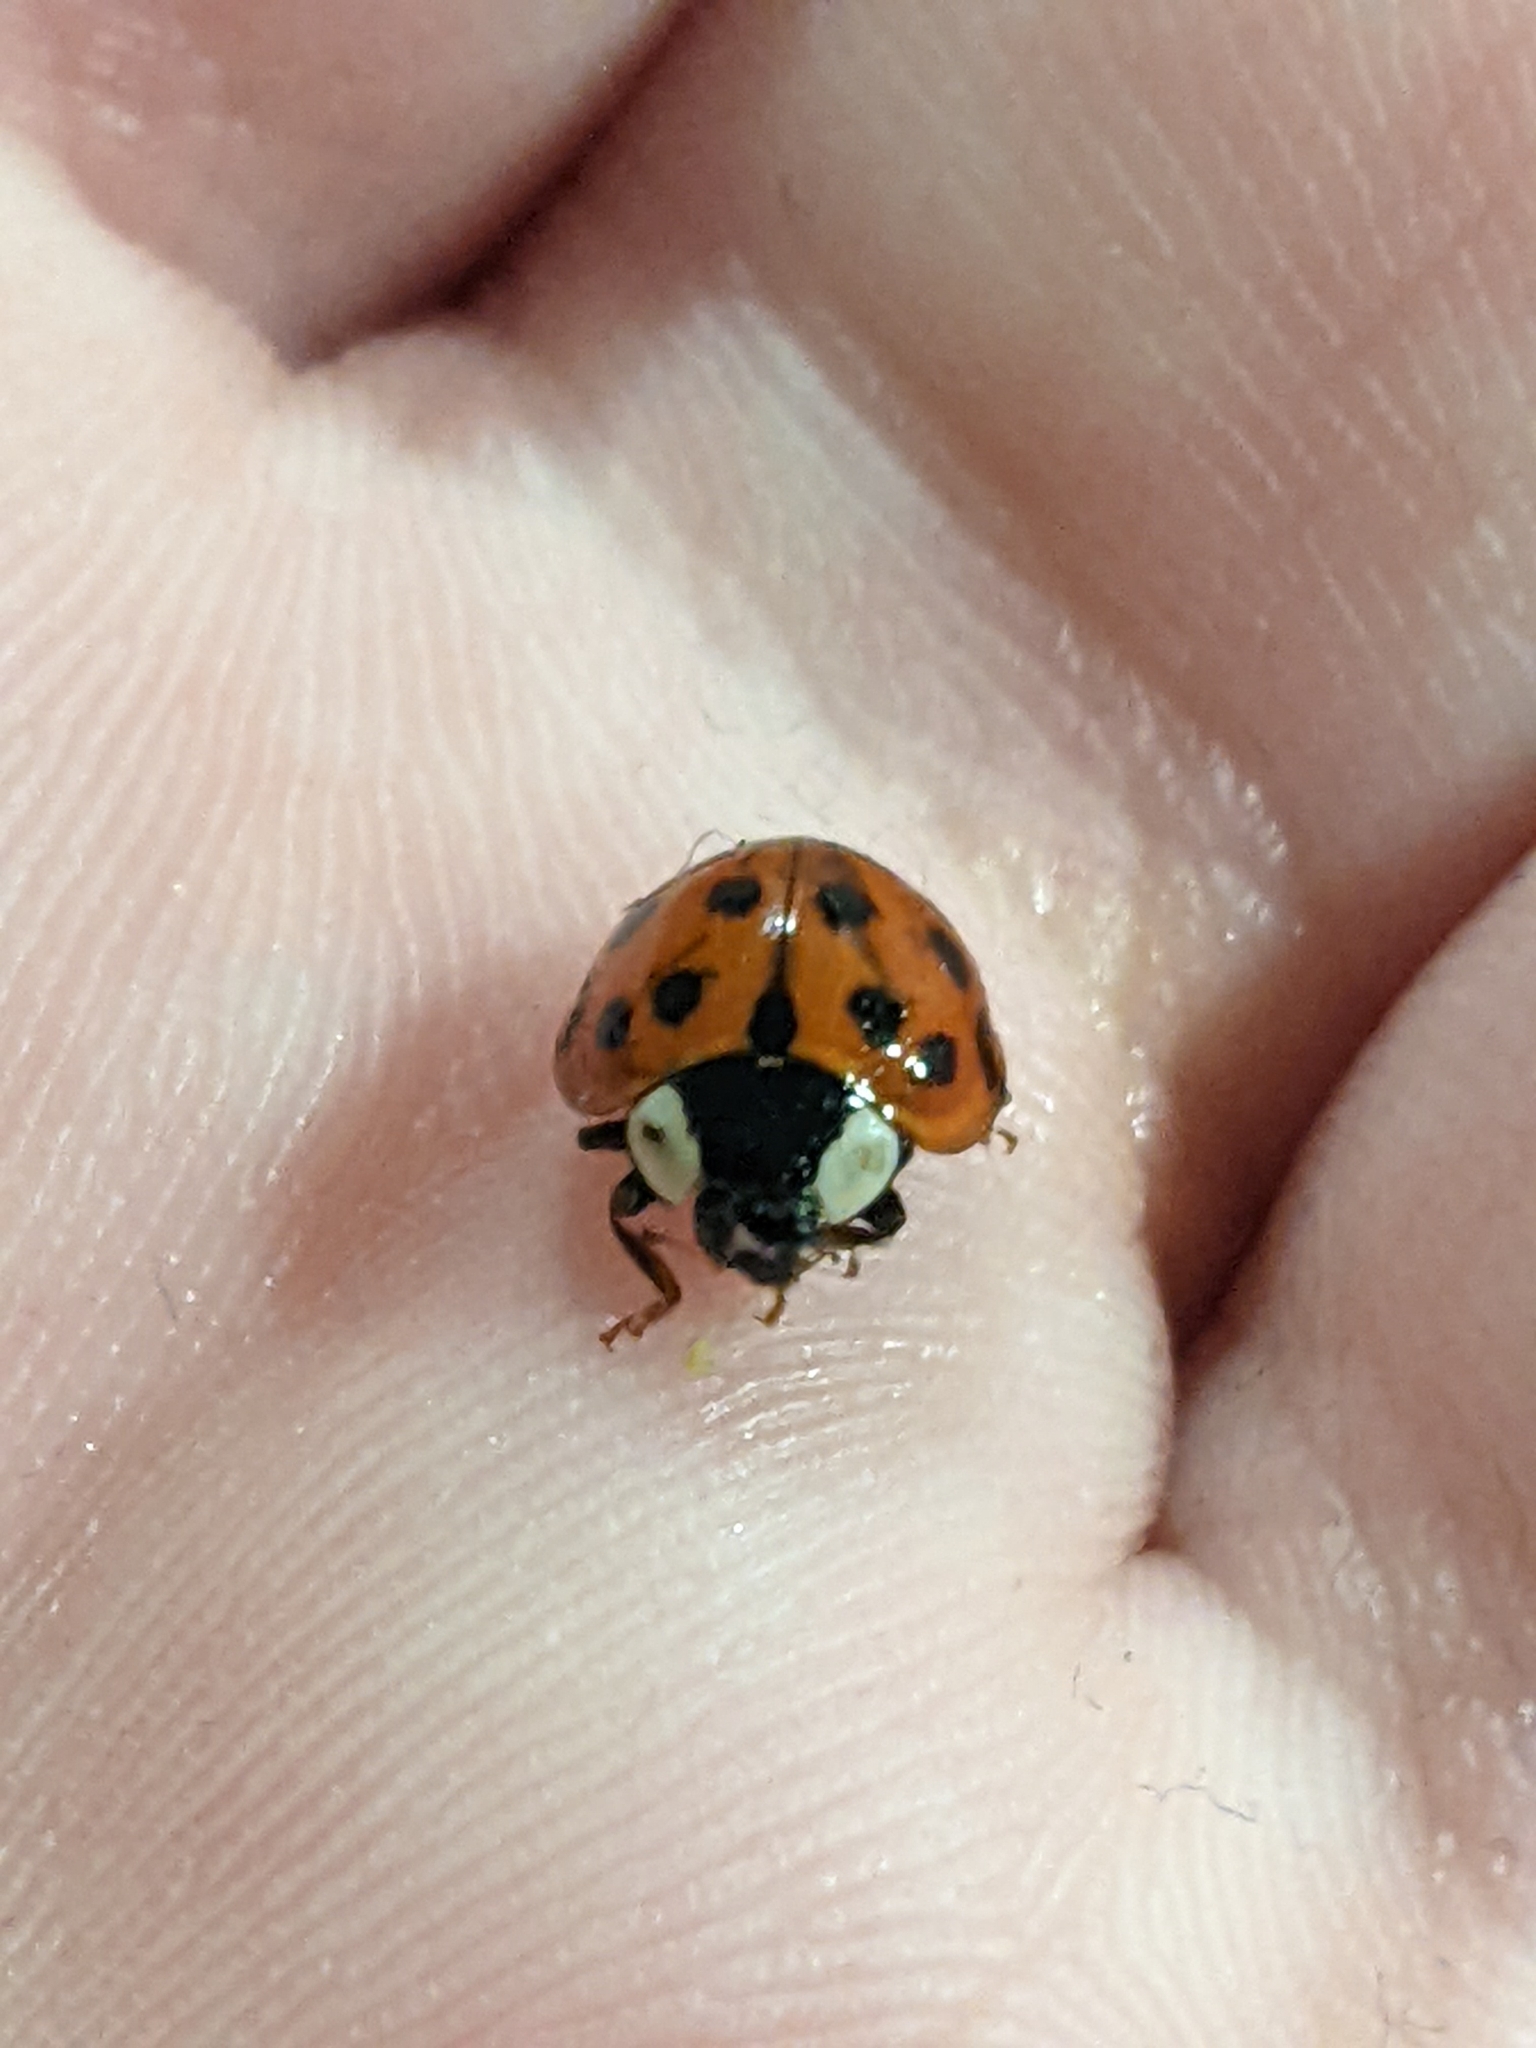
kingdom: Animalia
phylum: Arthropoda
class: Insecta
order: Coleoptera
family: Coccinellidae
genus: Harmonia
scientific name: Harmonia axyridis
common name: Harlequin ladybird
